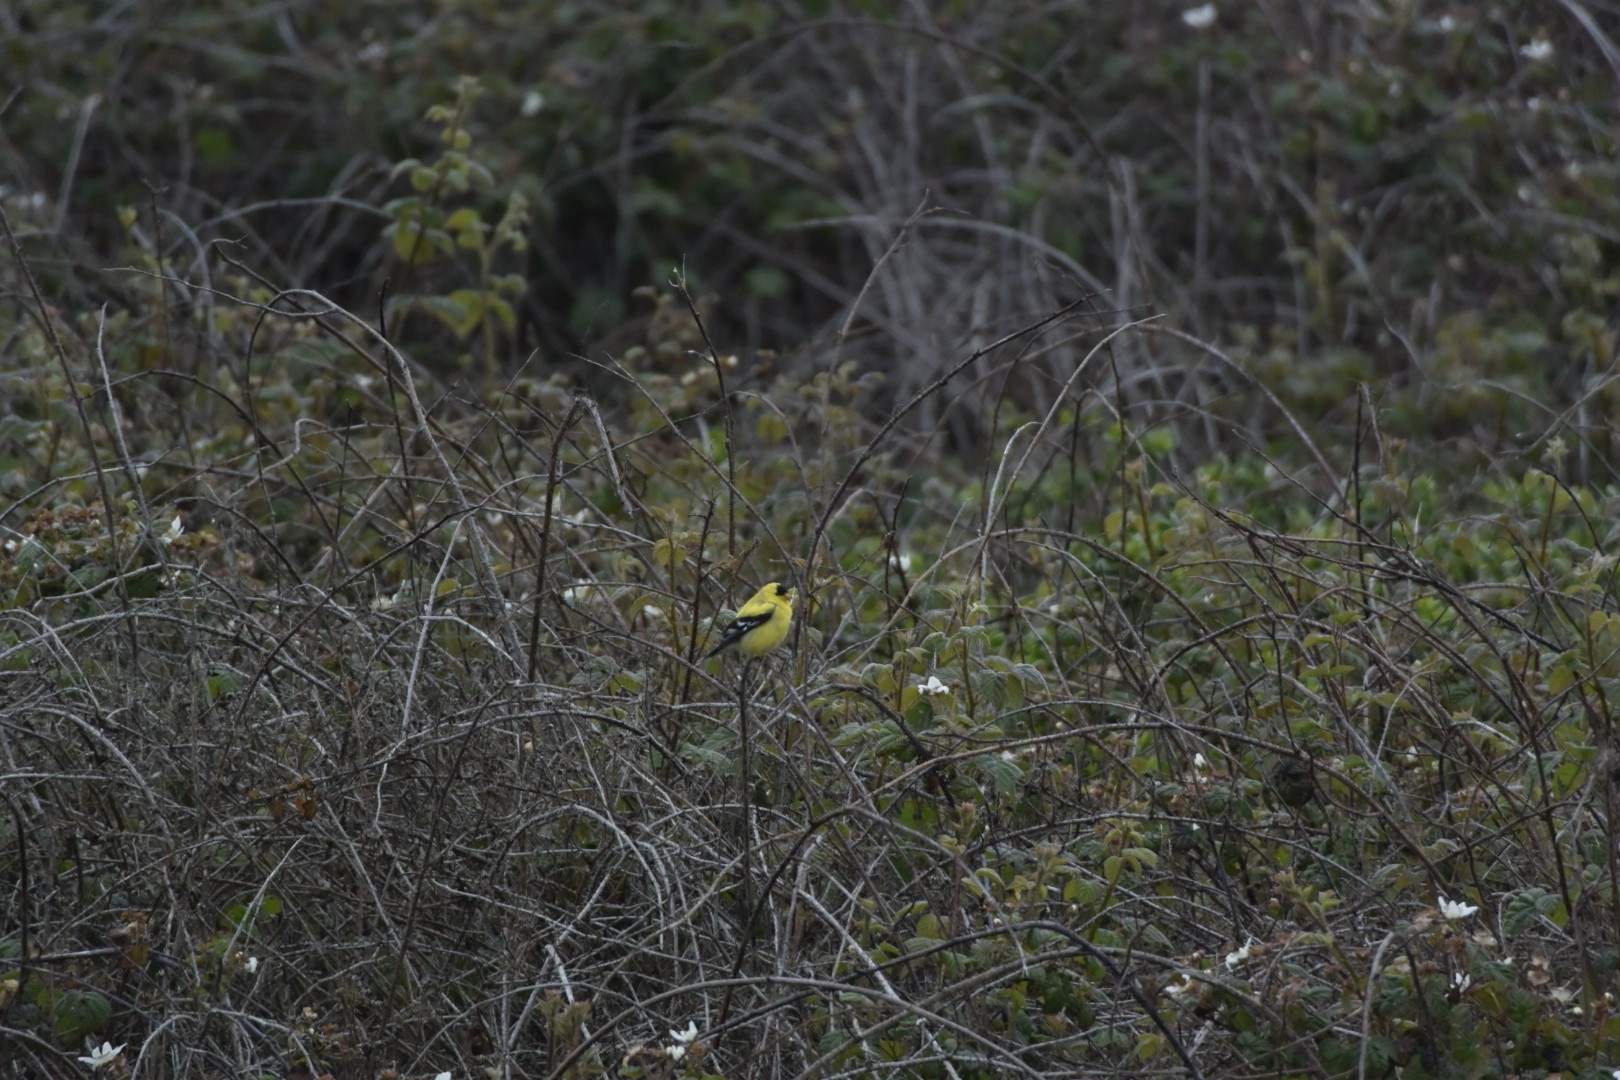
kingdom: Animalia
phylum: Chordata
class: Aves
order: Passeriformes
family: Fringillidae
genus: Spinus
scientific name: Spinus tristis
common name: American goldfinch
